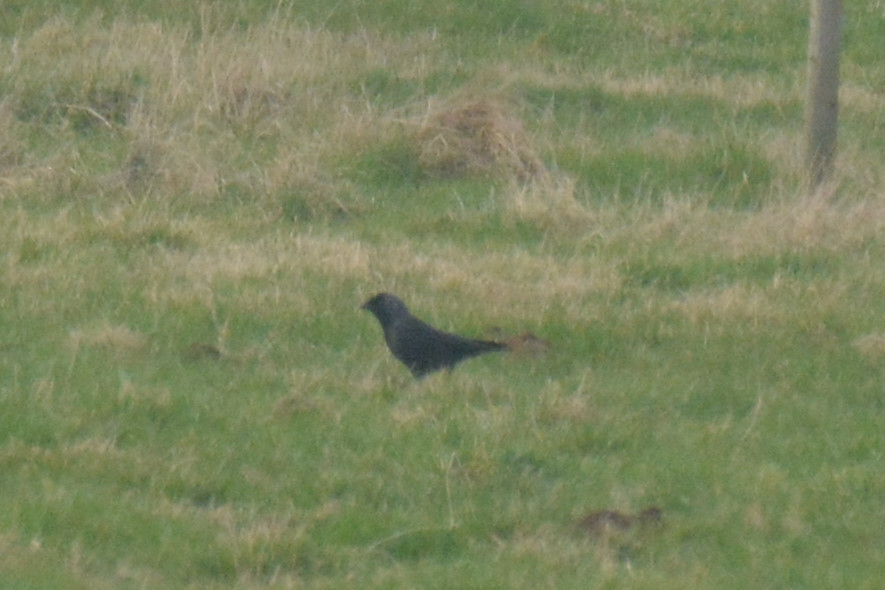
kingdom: Animalia
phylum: Chordata
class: Aves
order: Passeriformes
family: Corvidae
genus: Coloeus
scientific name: Coloeus monedula
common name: Western jackdaw
